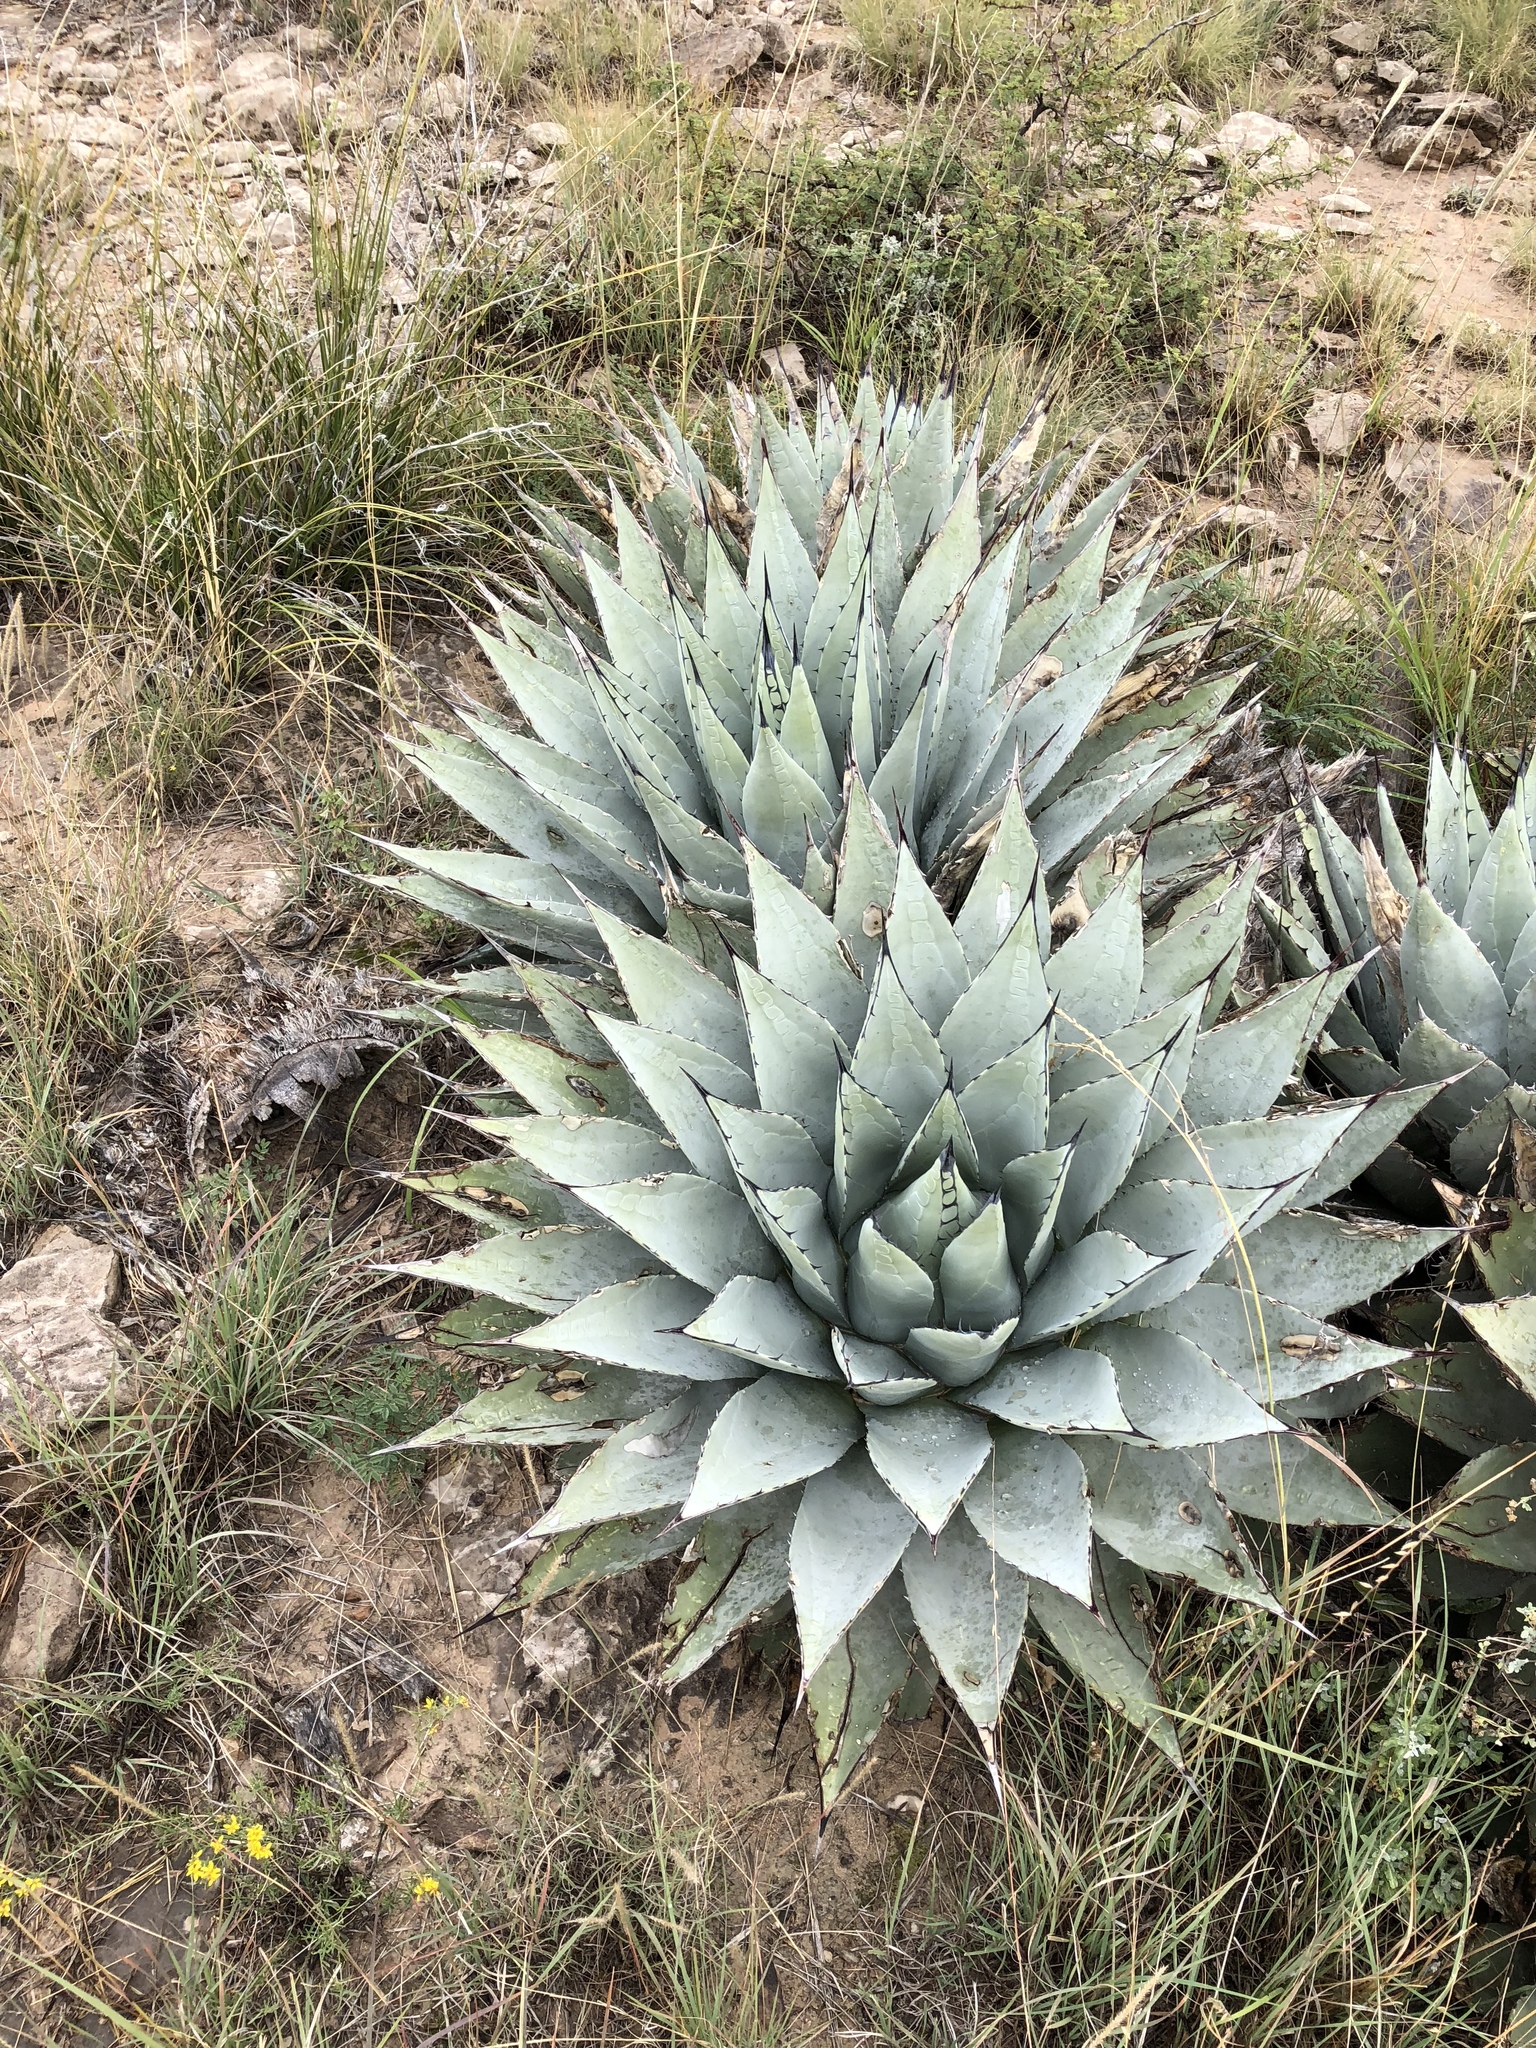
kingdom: Plantae
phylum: Tracheophyta
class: Liliopsida
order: Asparagales
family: Asparagaceae
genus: Agave
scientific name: Agave parryi
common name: Parry's agave
